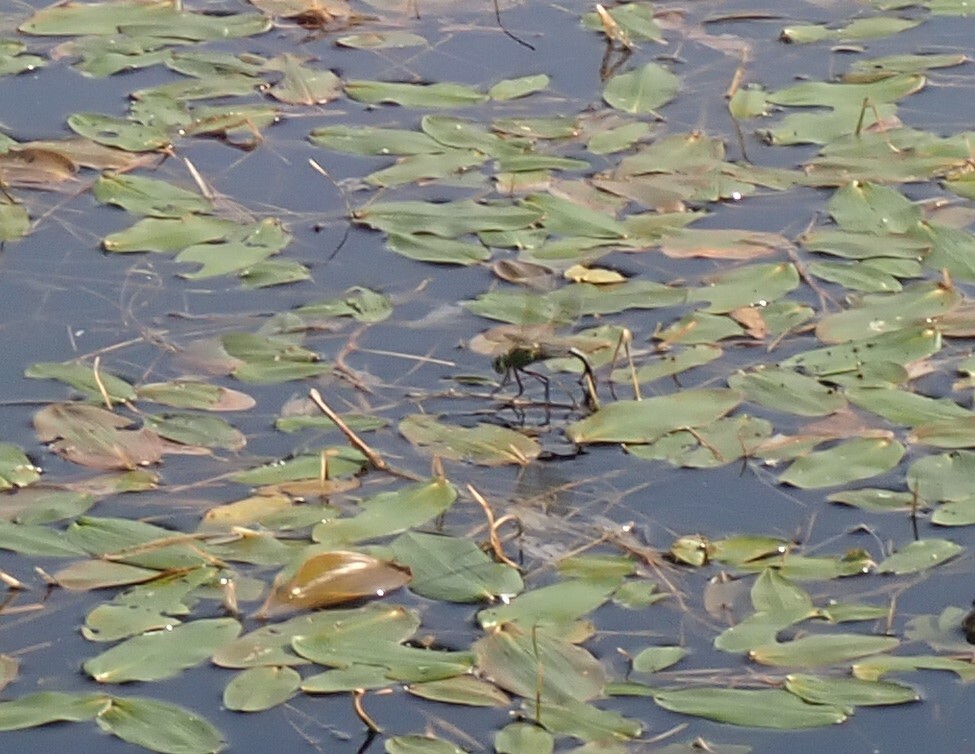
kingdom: Animalia
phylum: Arthropoda
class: Insecta
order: Odonata
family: Aeshnidae
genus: Anax
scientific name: Anax imperator
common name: Emperor dragonfly
